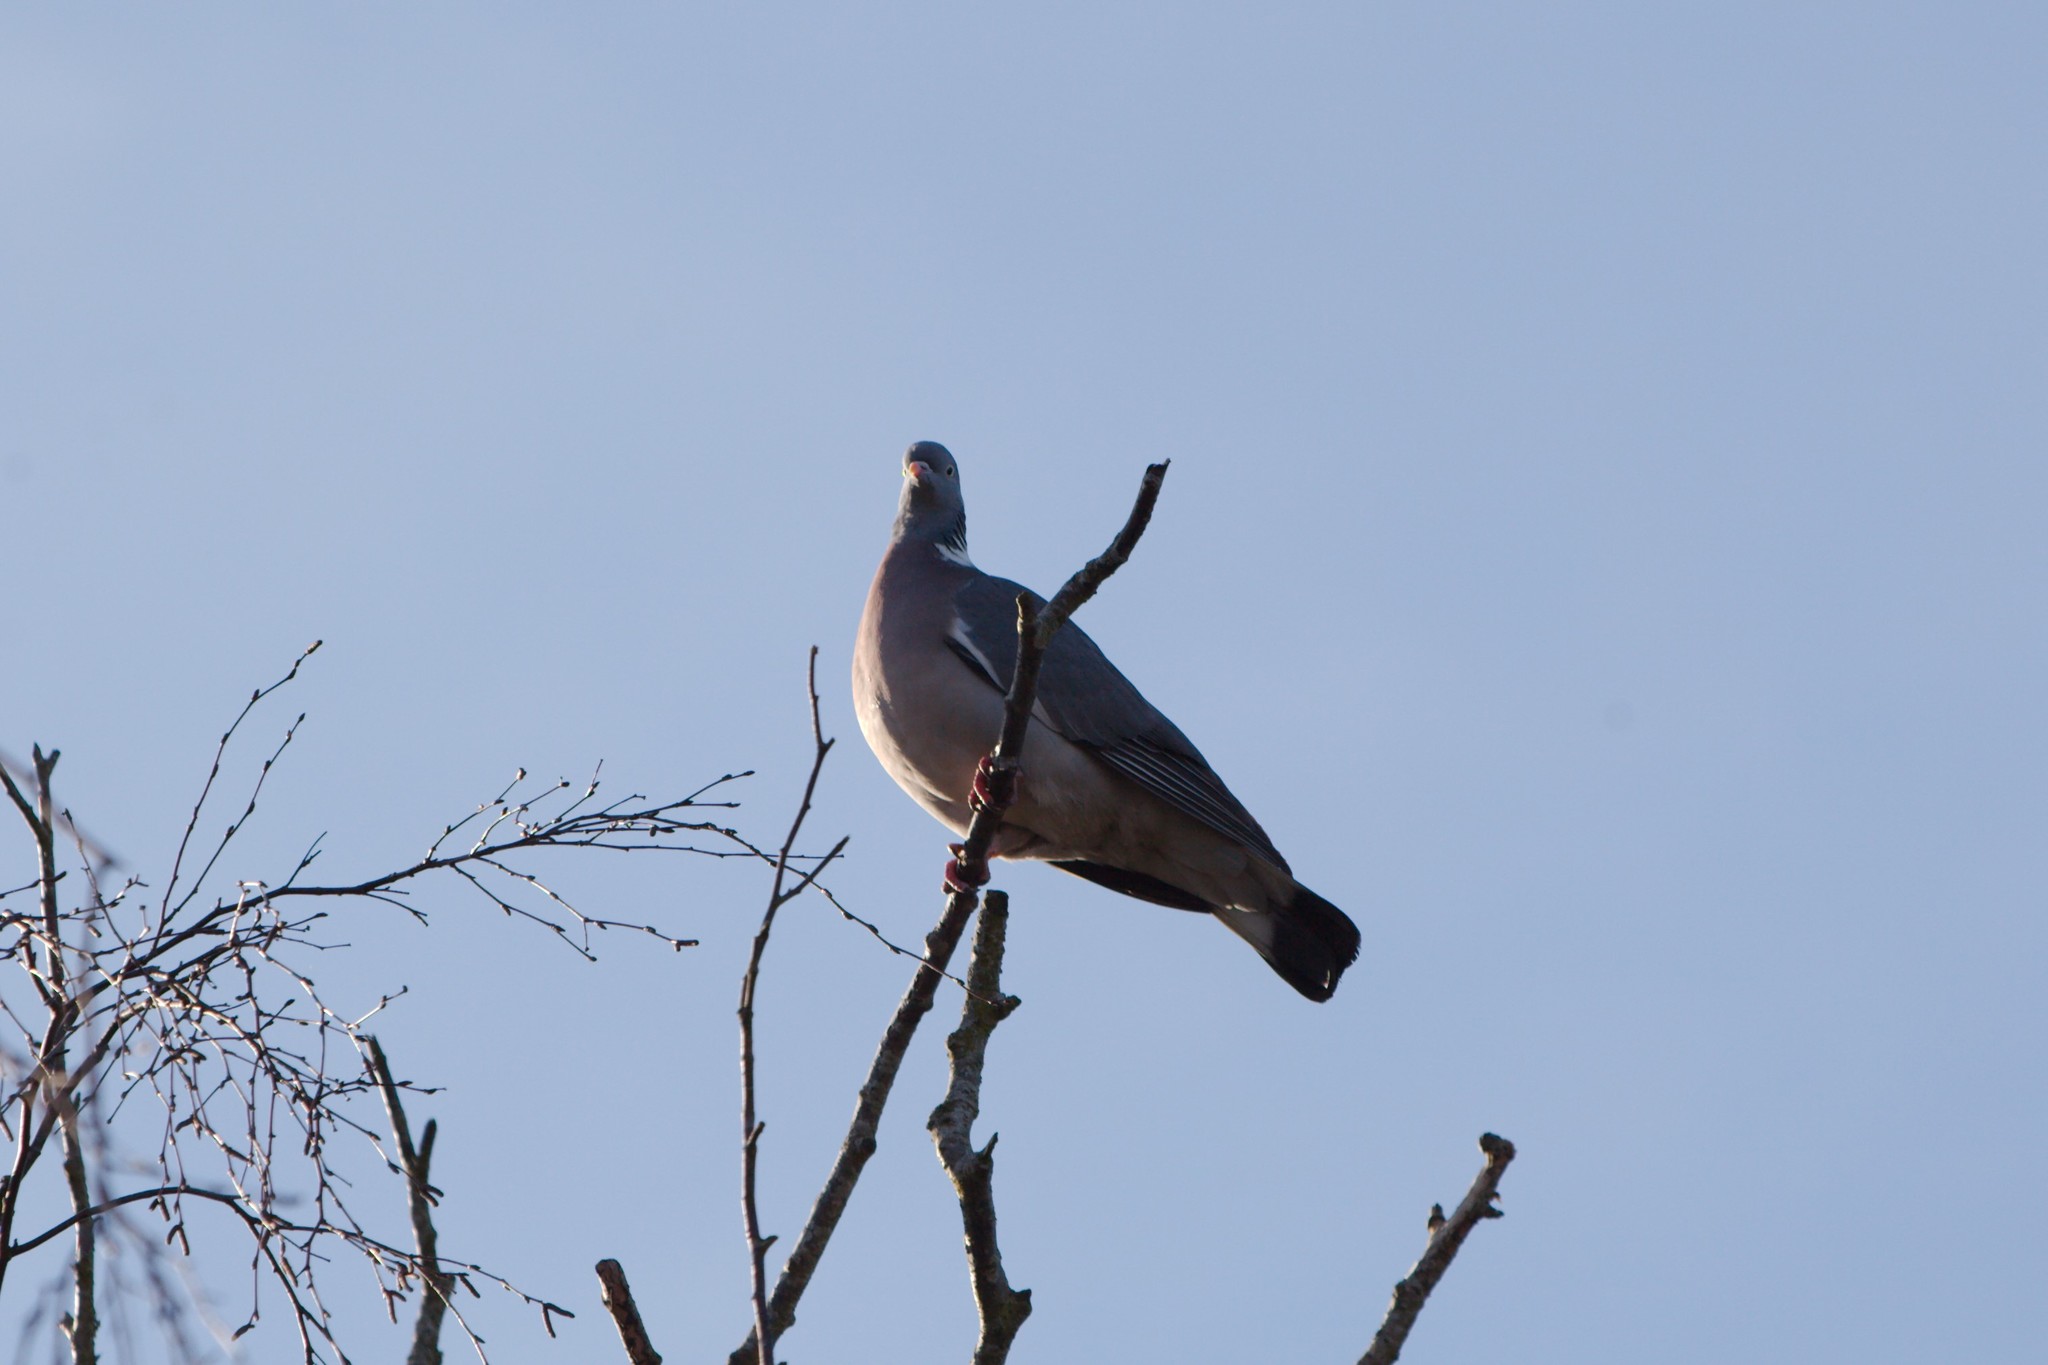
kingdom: Animalia
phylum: Chordata
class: Aves
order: Columbiformes
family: Columbidae
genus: Columba
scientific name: Columba palumbus
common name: Common wood pigeon
